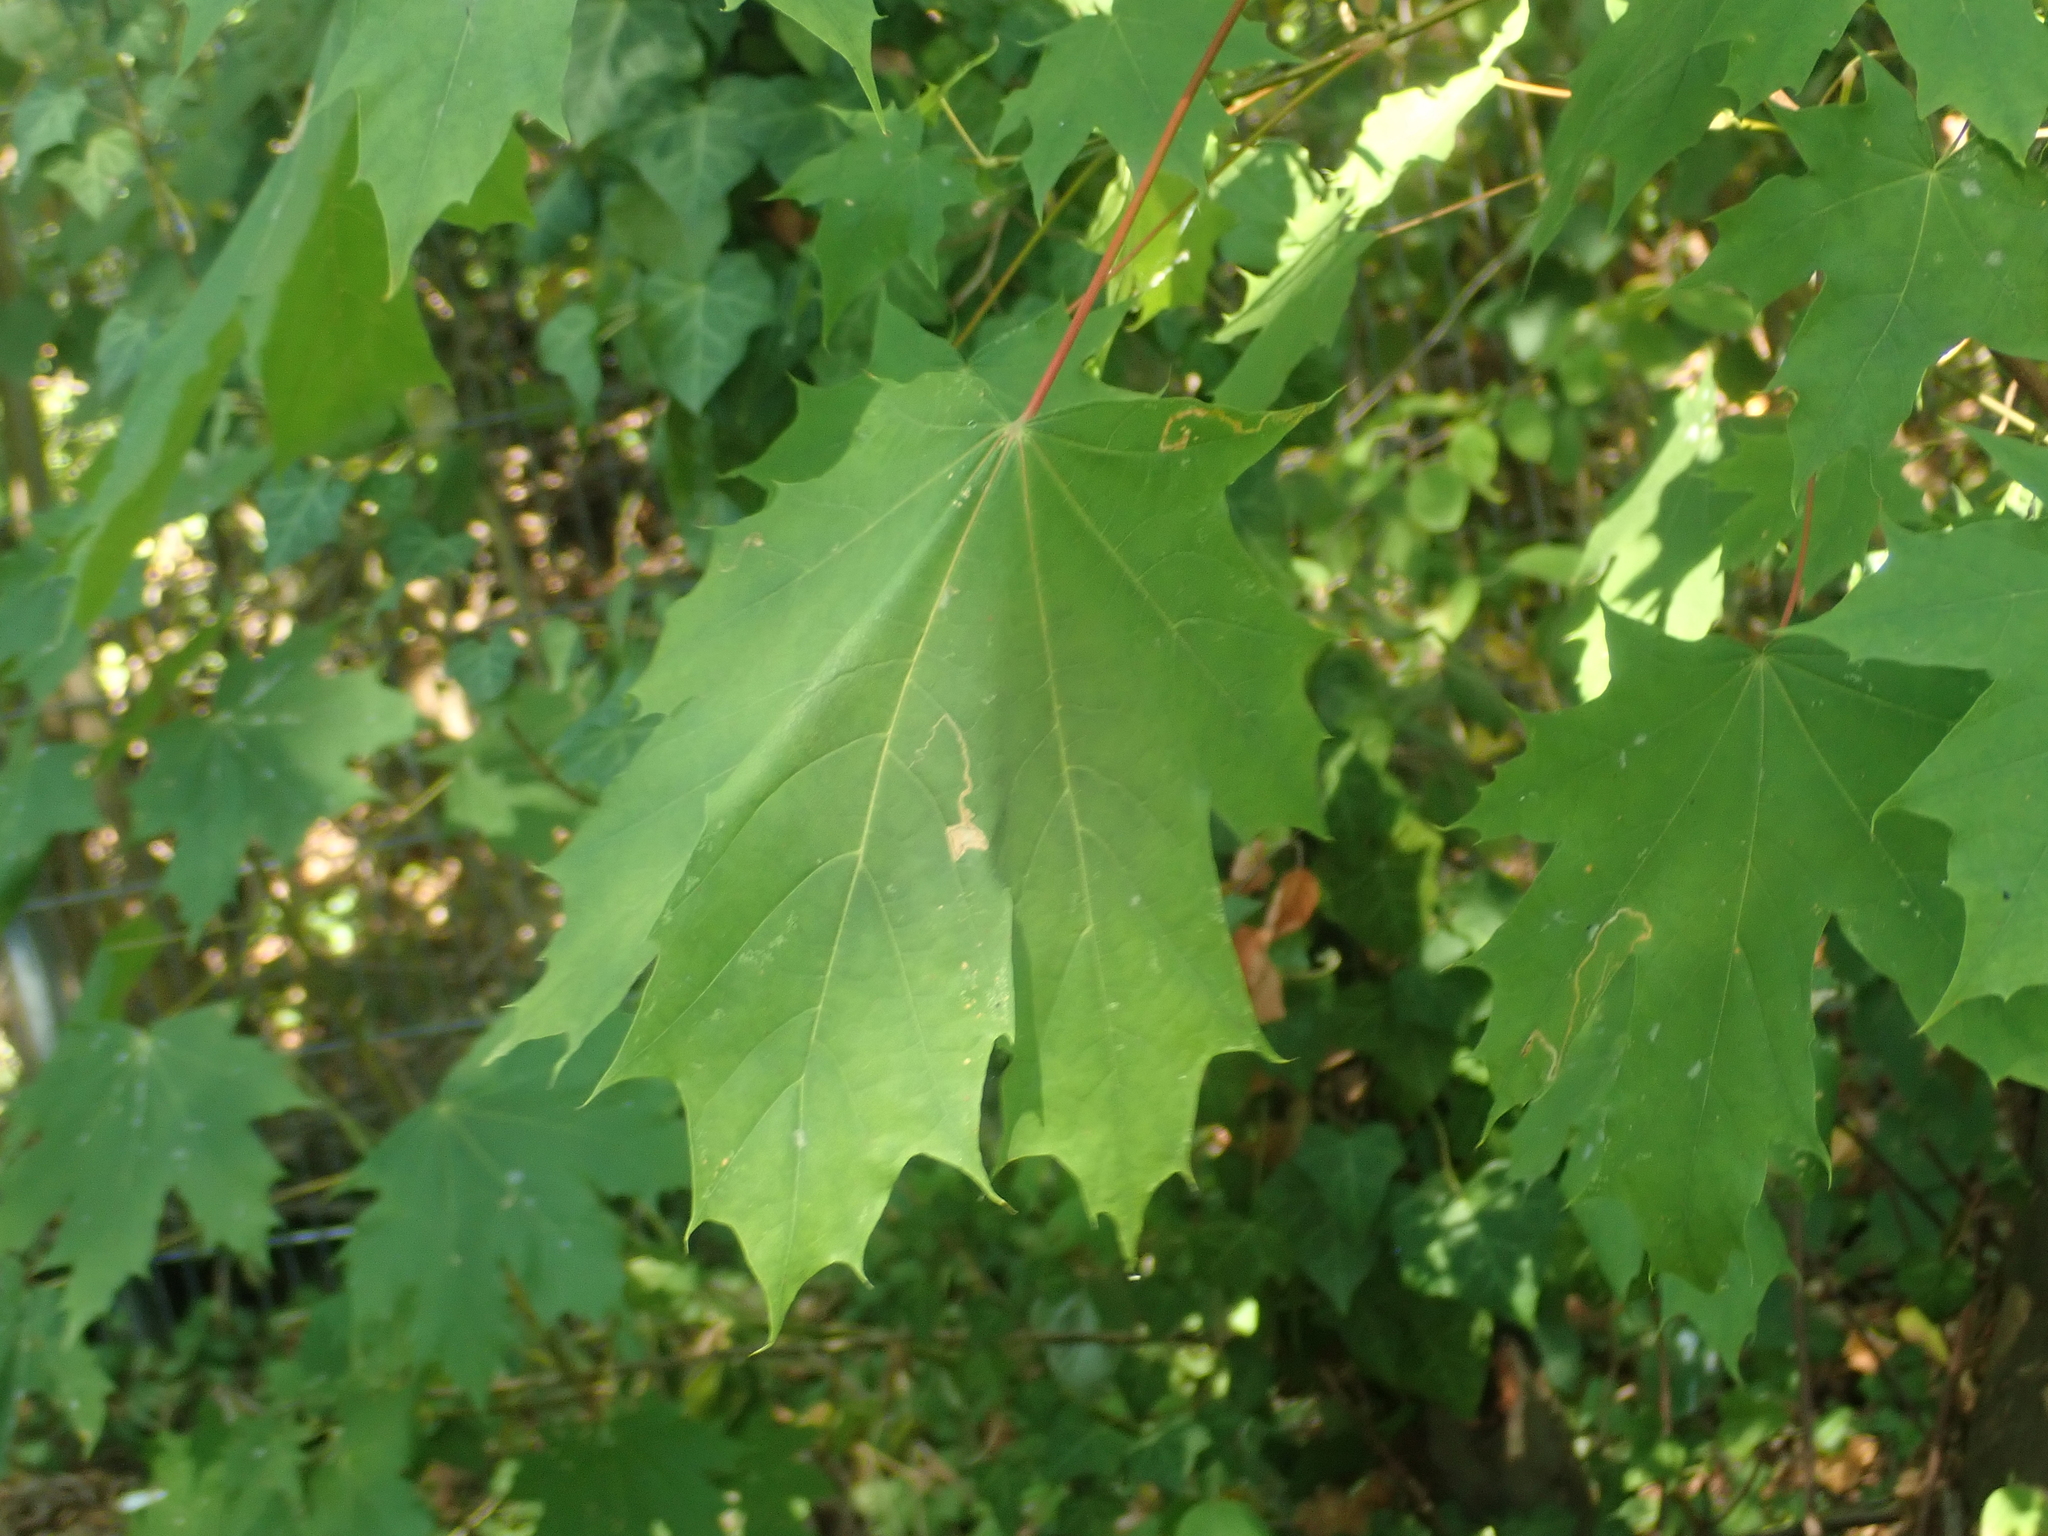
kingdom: Plantae
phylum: Tracheophyta
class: Magnoliopsida
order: Sapindales
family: Sapindaceae
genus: Acer
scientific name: Acer platanoides
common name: Norway maple
